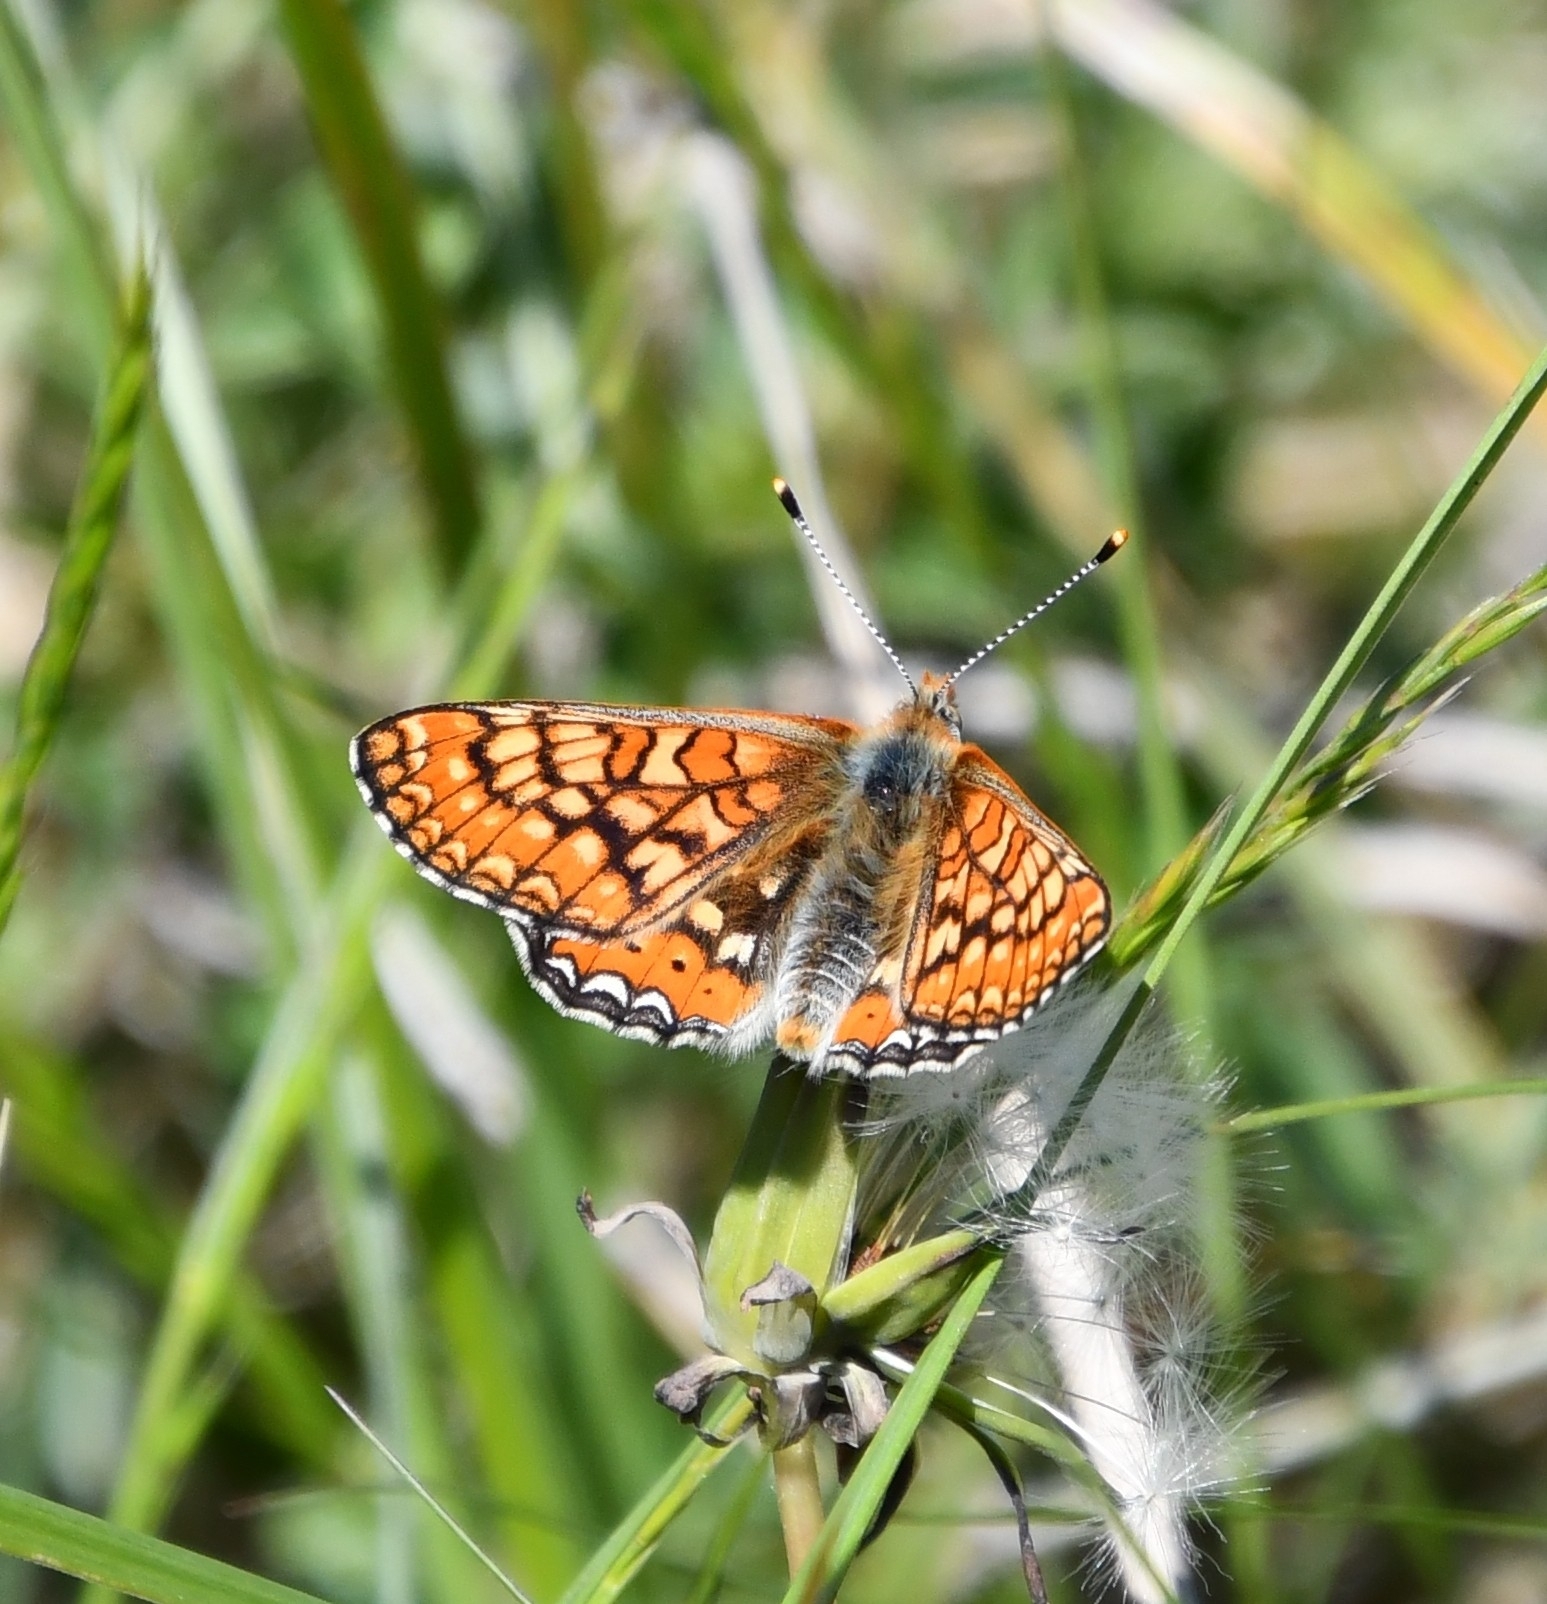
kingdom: Animalia
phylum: Arthropoda
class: Insecta
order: Lepidoptera
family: Nymphalidae
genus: Euphydryas
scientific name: Euphydryas aurinia
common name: Marsh fritillary
